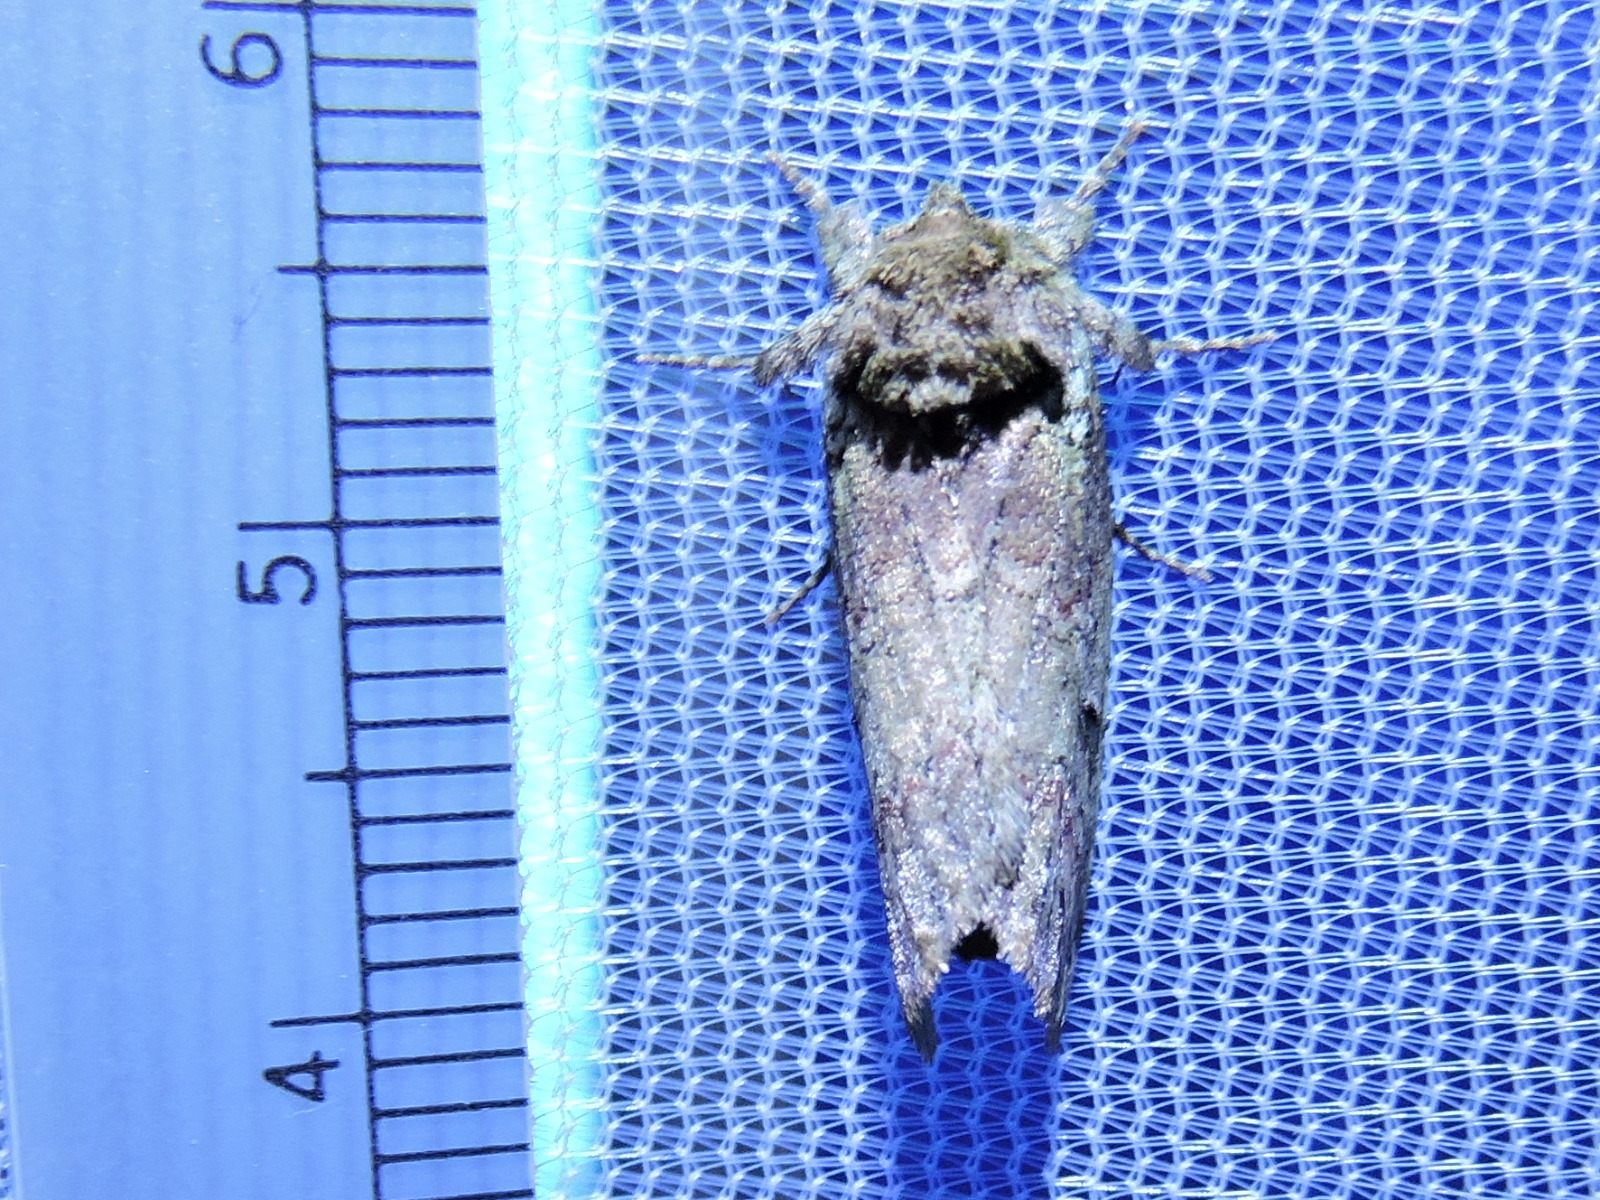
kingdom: Animalia
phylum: Arthropoda
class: Insecta
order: Lepidoptera
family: Notodontidae
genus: Schizura
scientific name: Schizura
